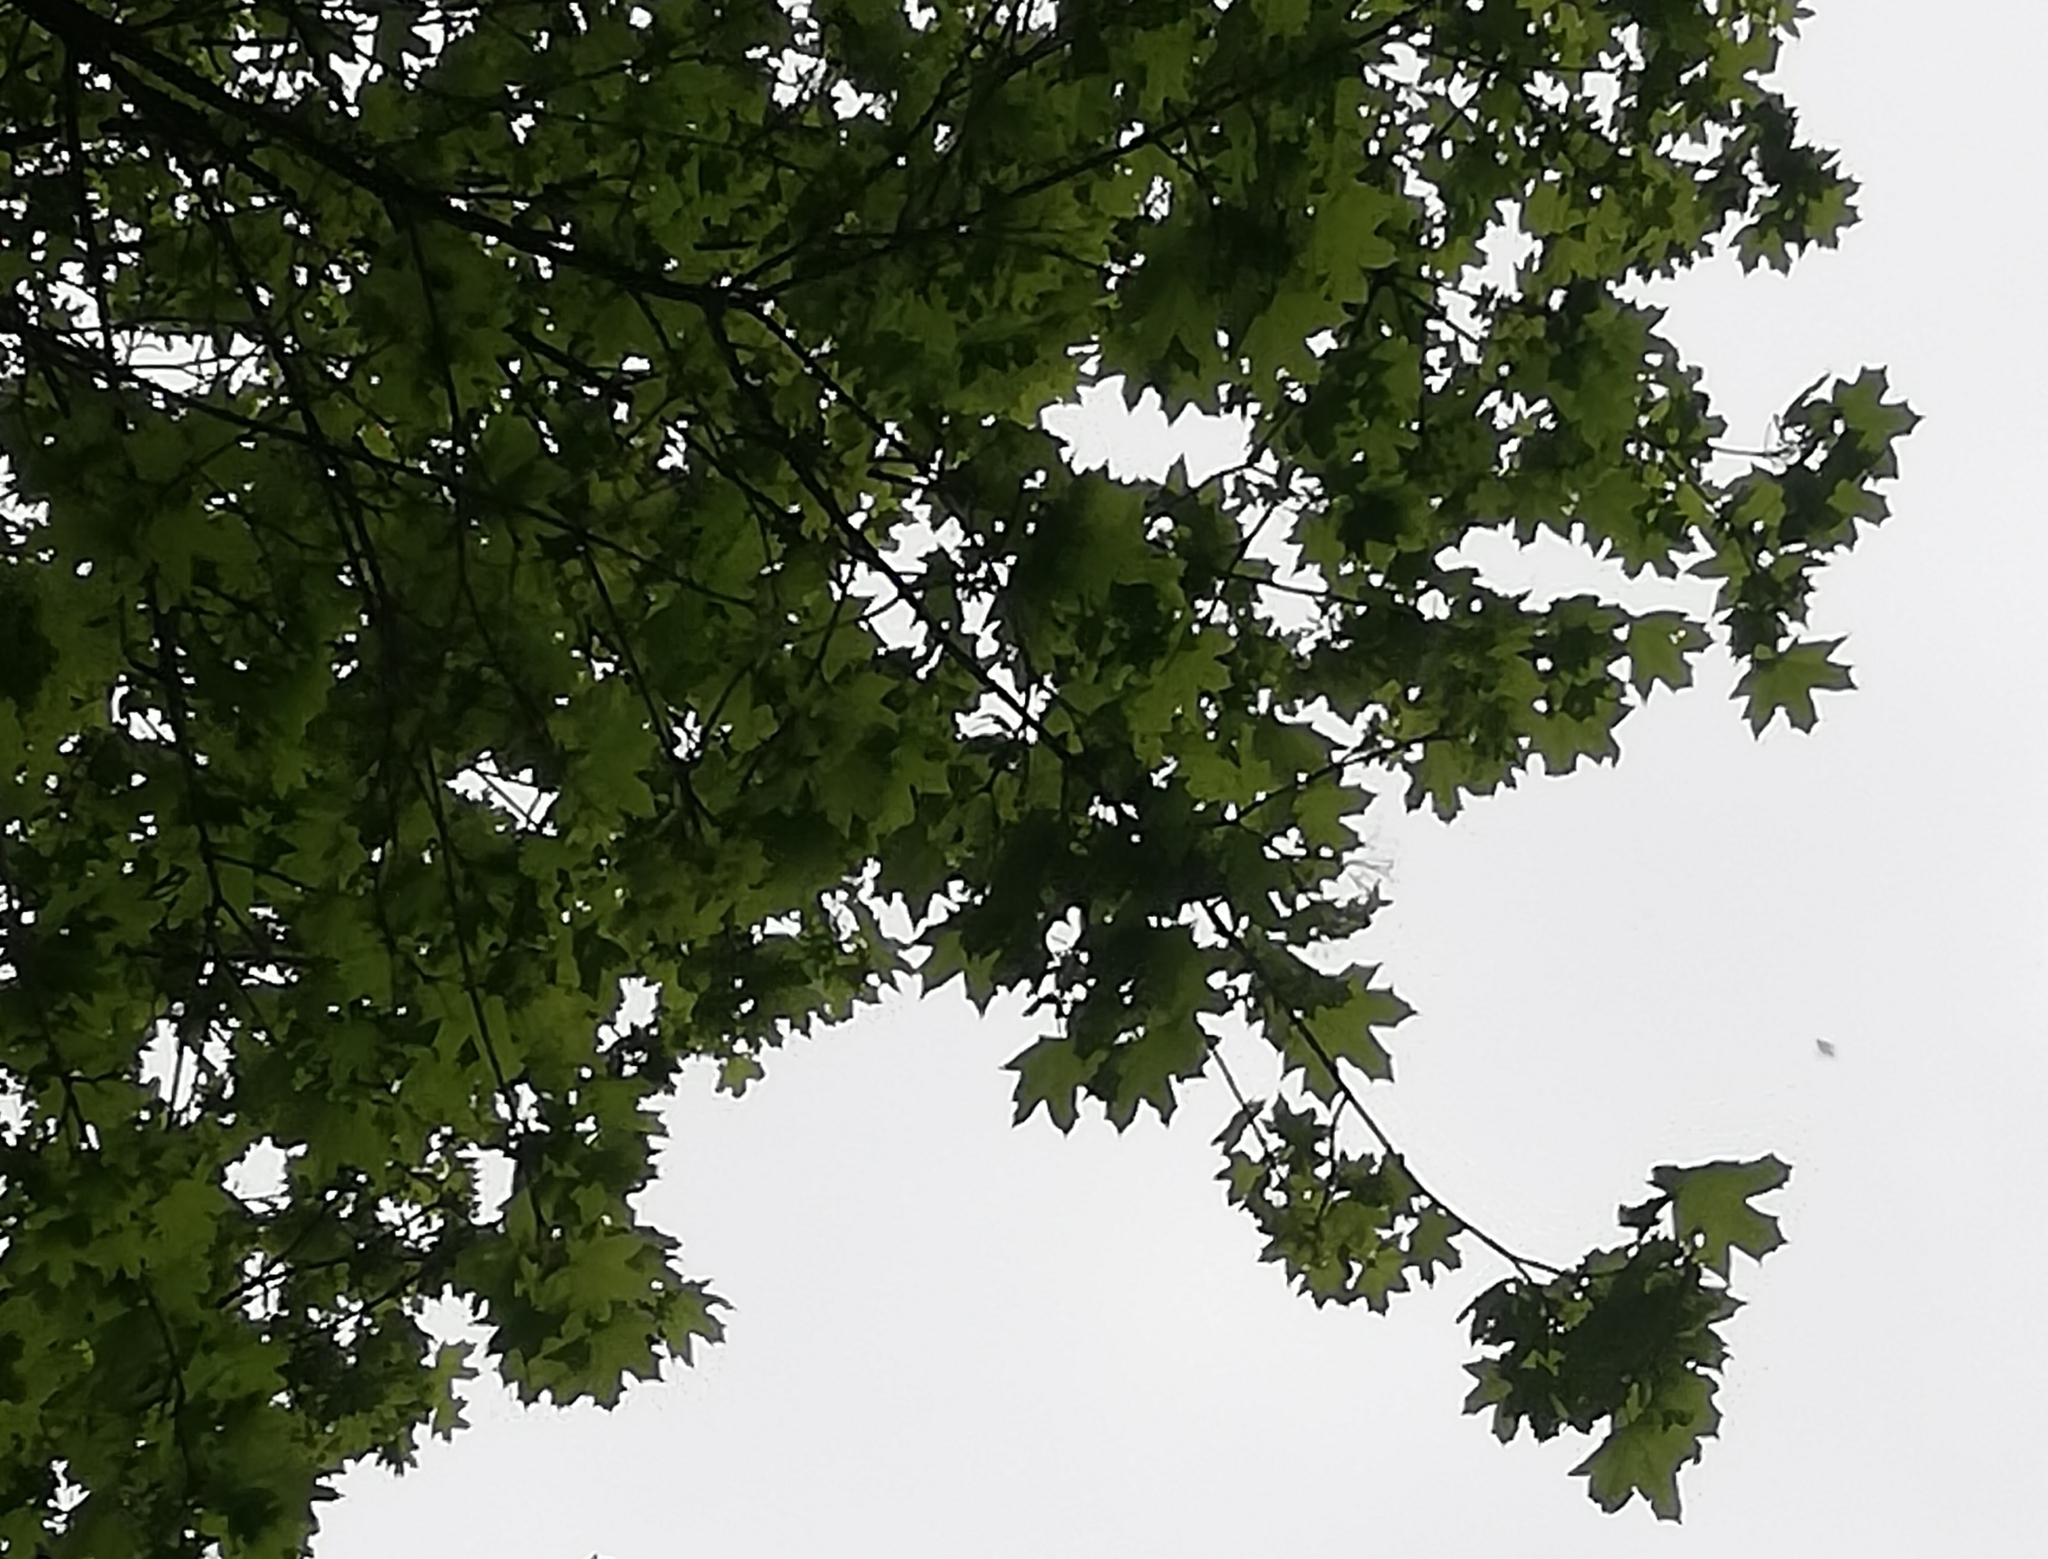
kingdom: Plantae
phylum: Tracheophyta
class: Magnoliopsida
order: Sapindales
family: Sapindaceae
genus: Acer
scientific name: Acer platanoides
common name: Norway maple
